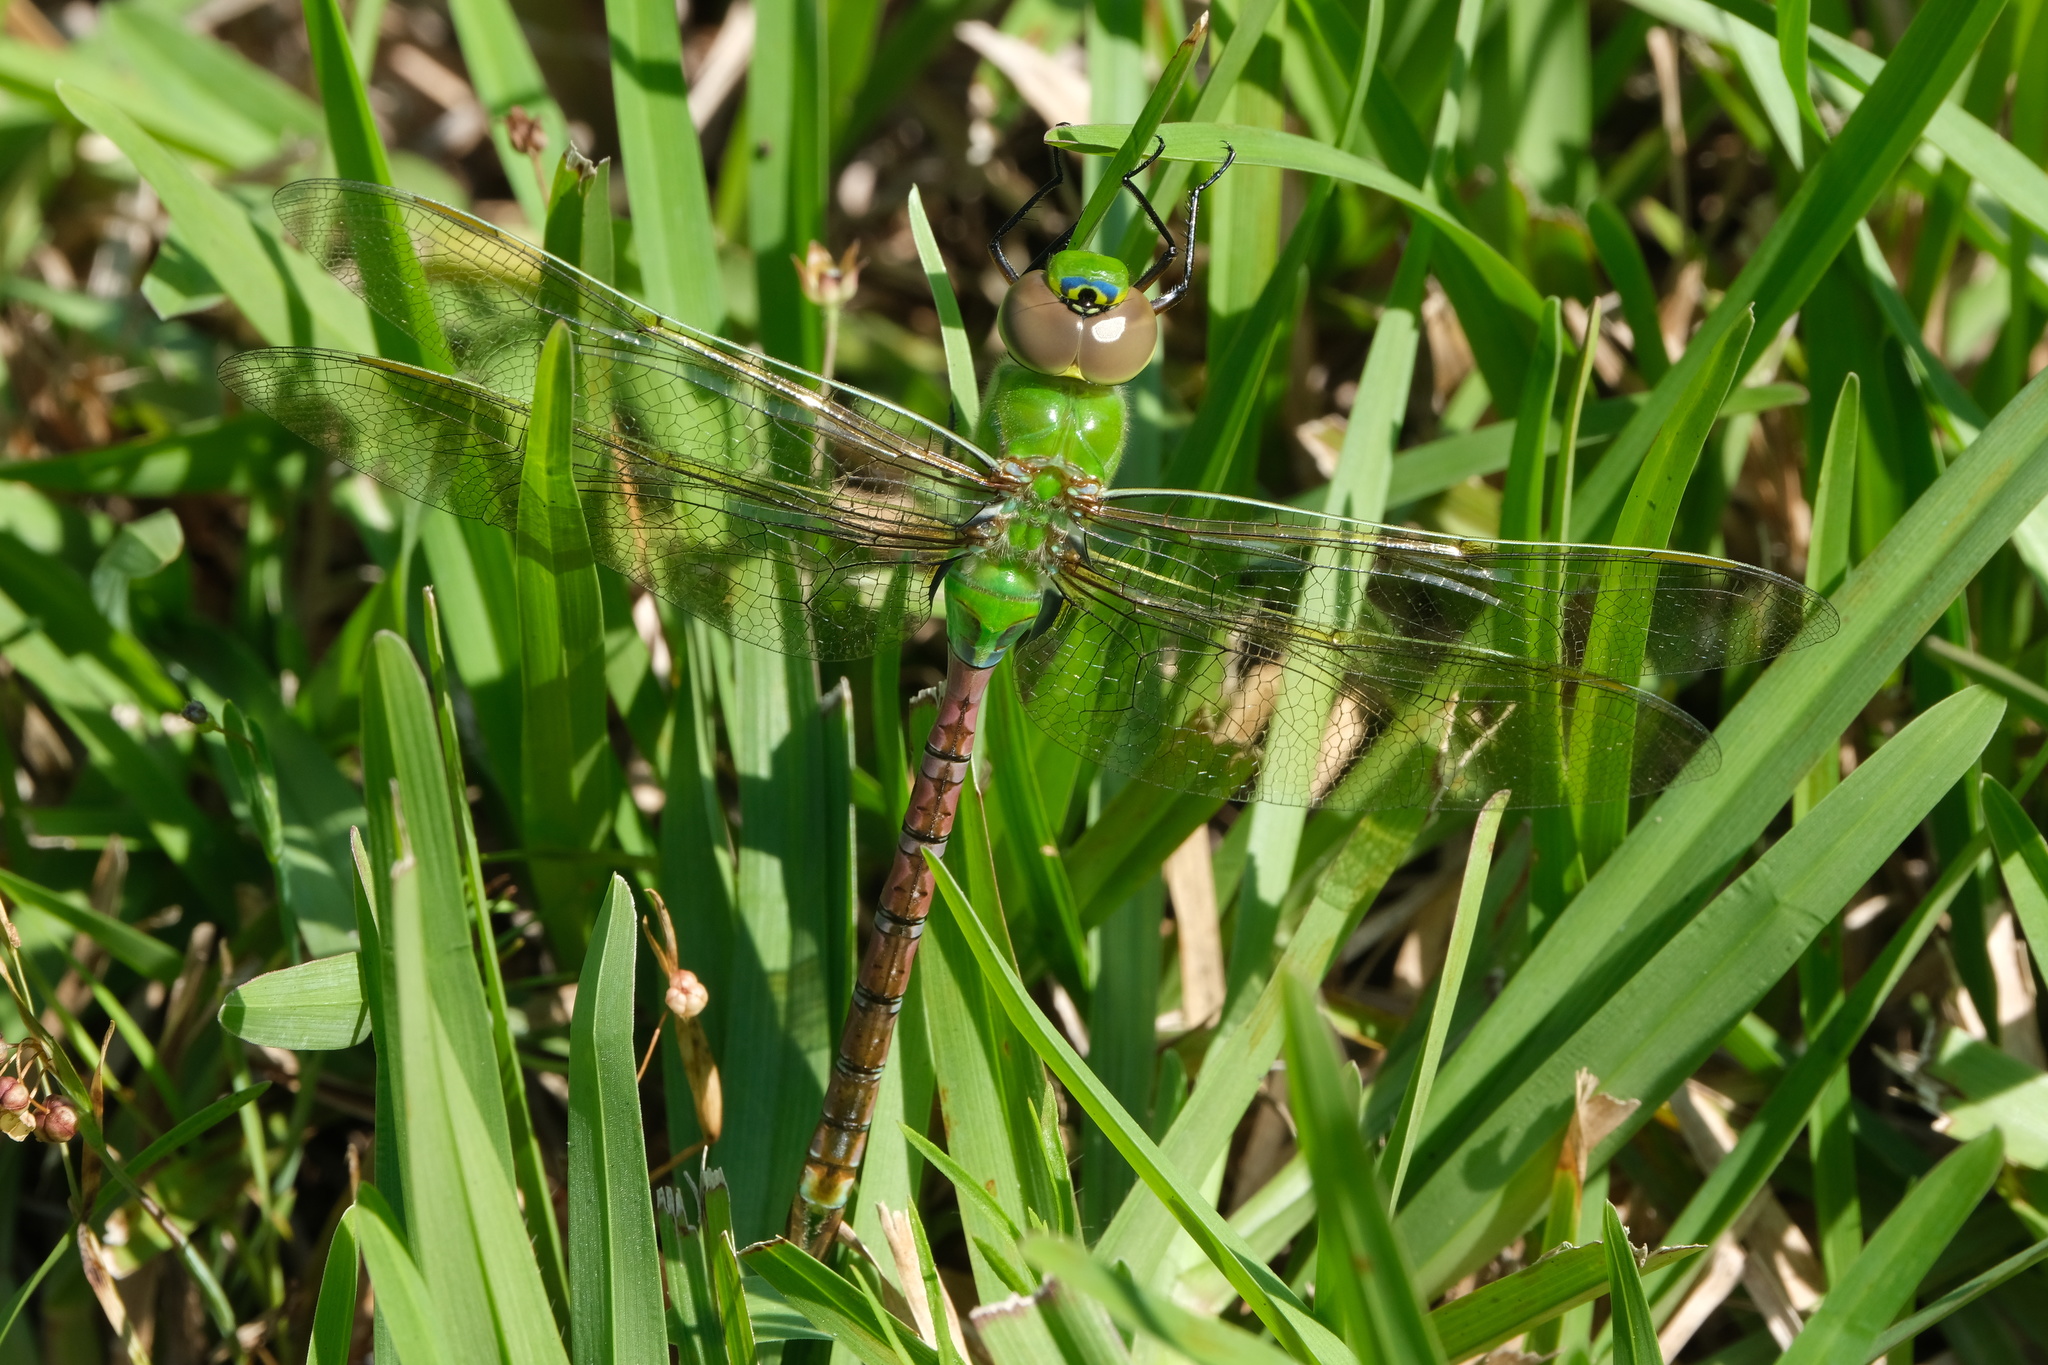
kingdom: Animalia
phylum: Arthropoda
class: Insecta
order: Odonata
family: Aeshnidae
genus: Anax
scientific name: Anax junius
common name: Common green darner
